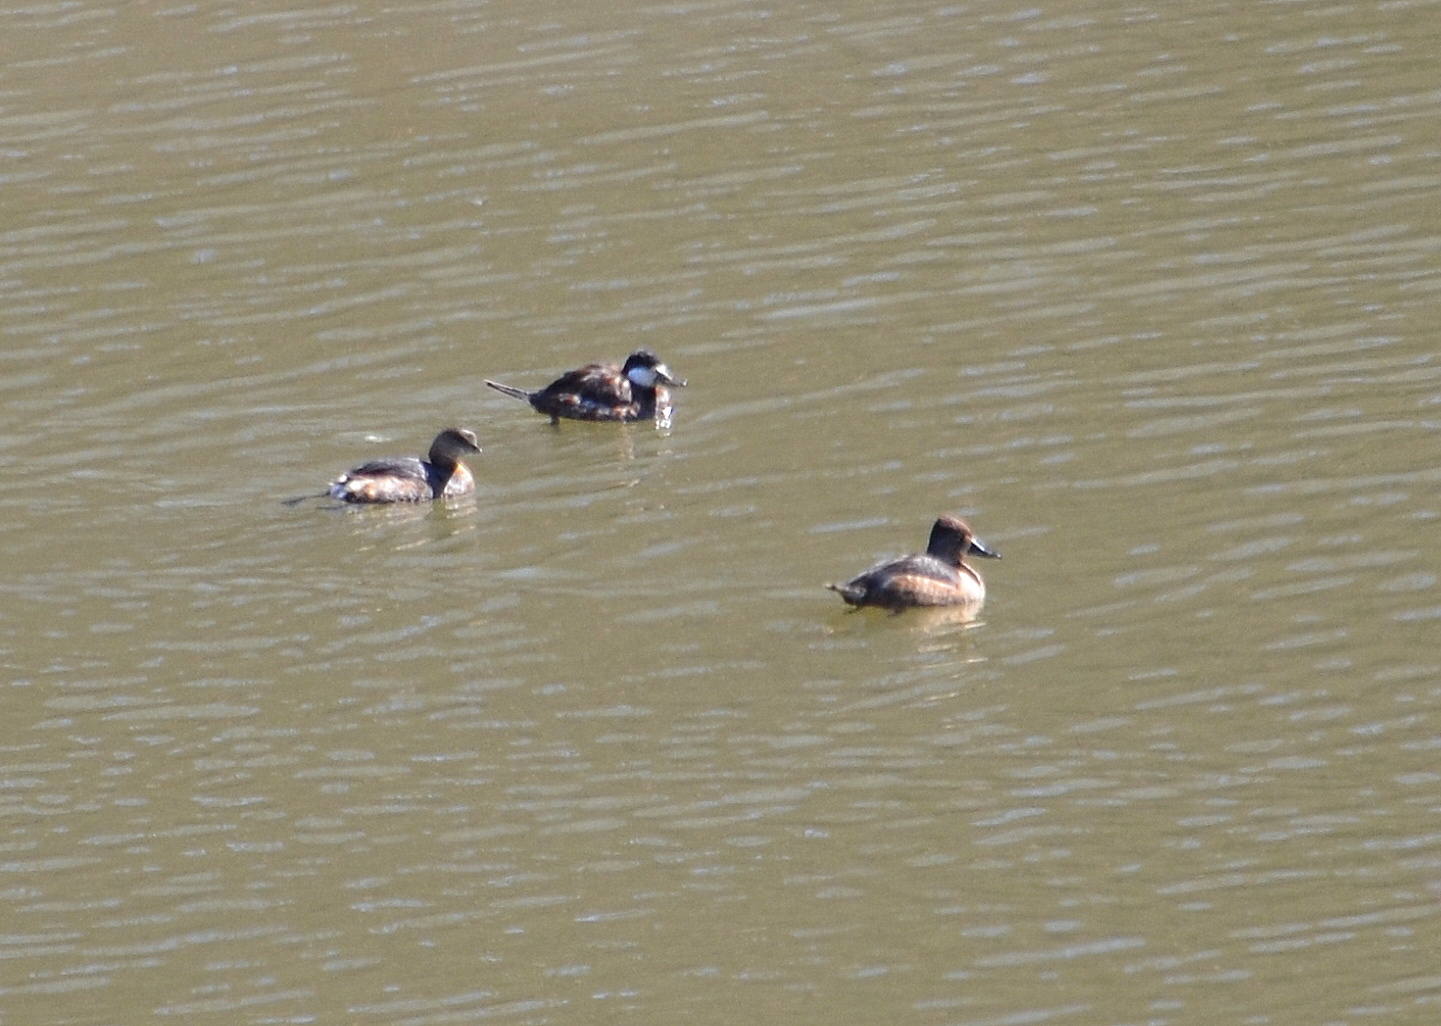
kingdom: Animalia
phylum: Chordata
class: Aves
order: Anseriformes
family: Anatidae
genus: Oxyura
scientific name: Oxyura jamaicensis
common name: Ruddy duck
